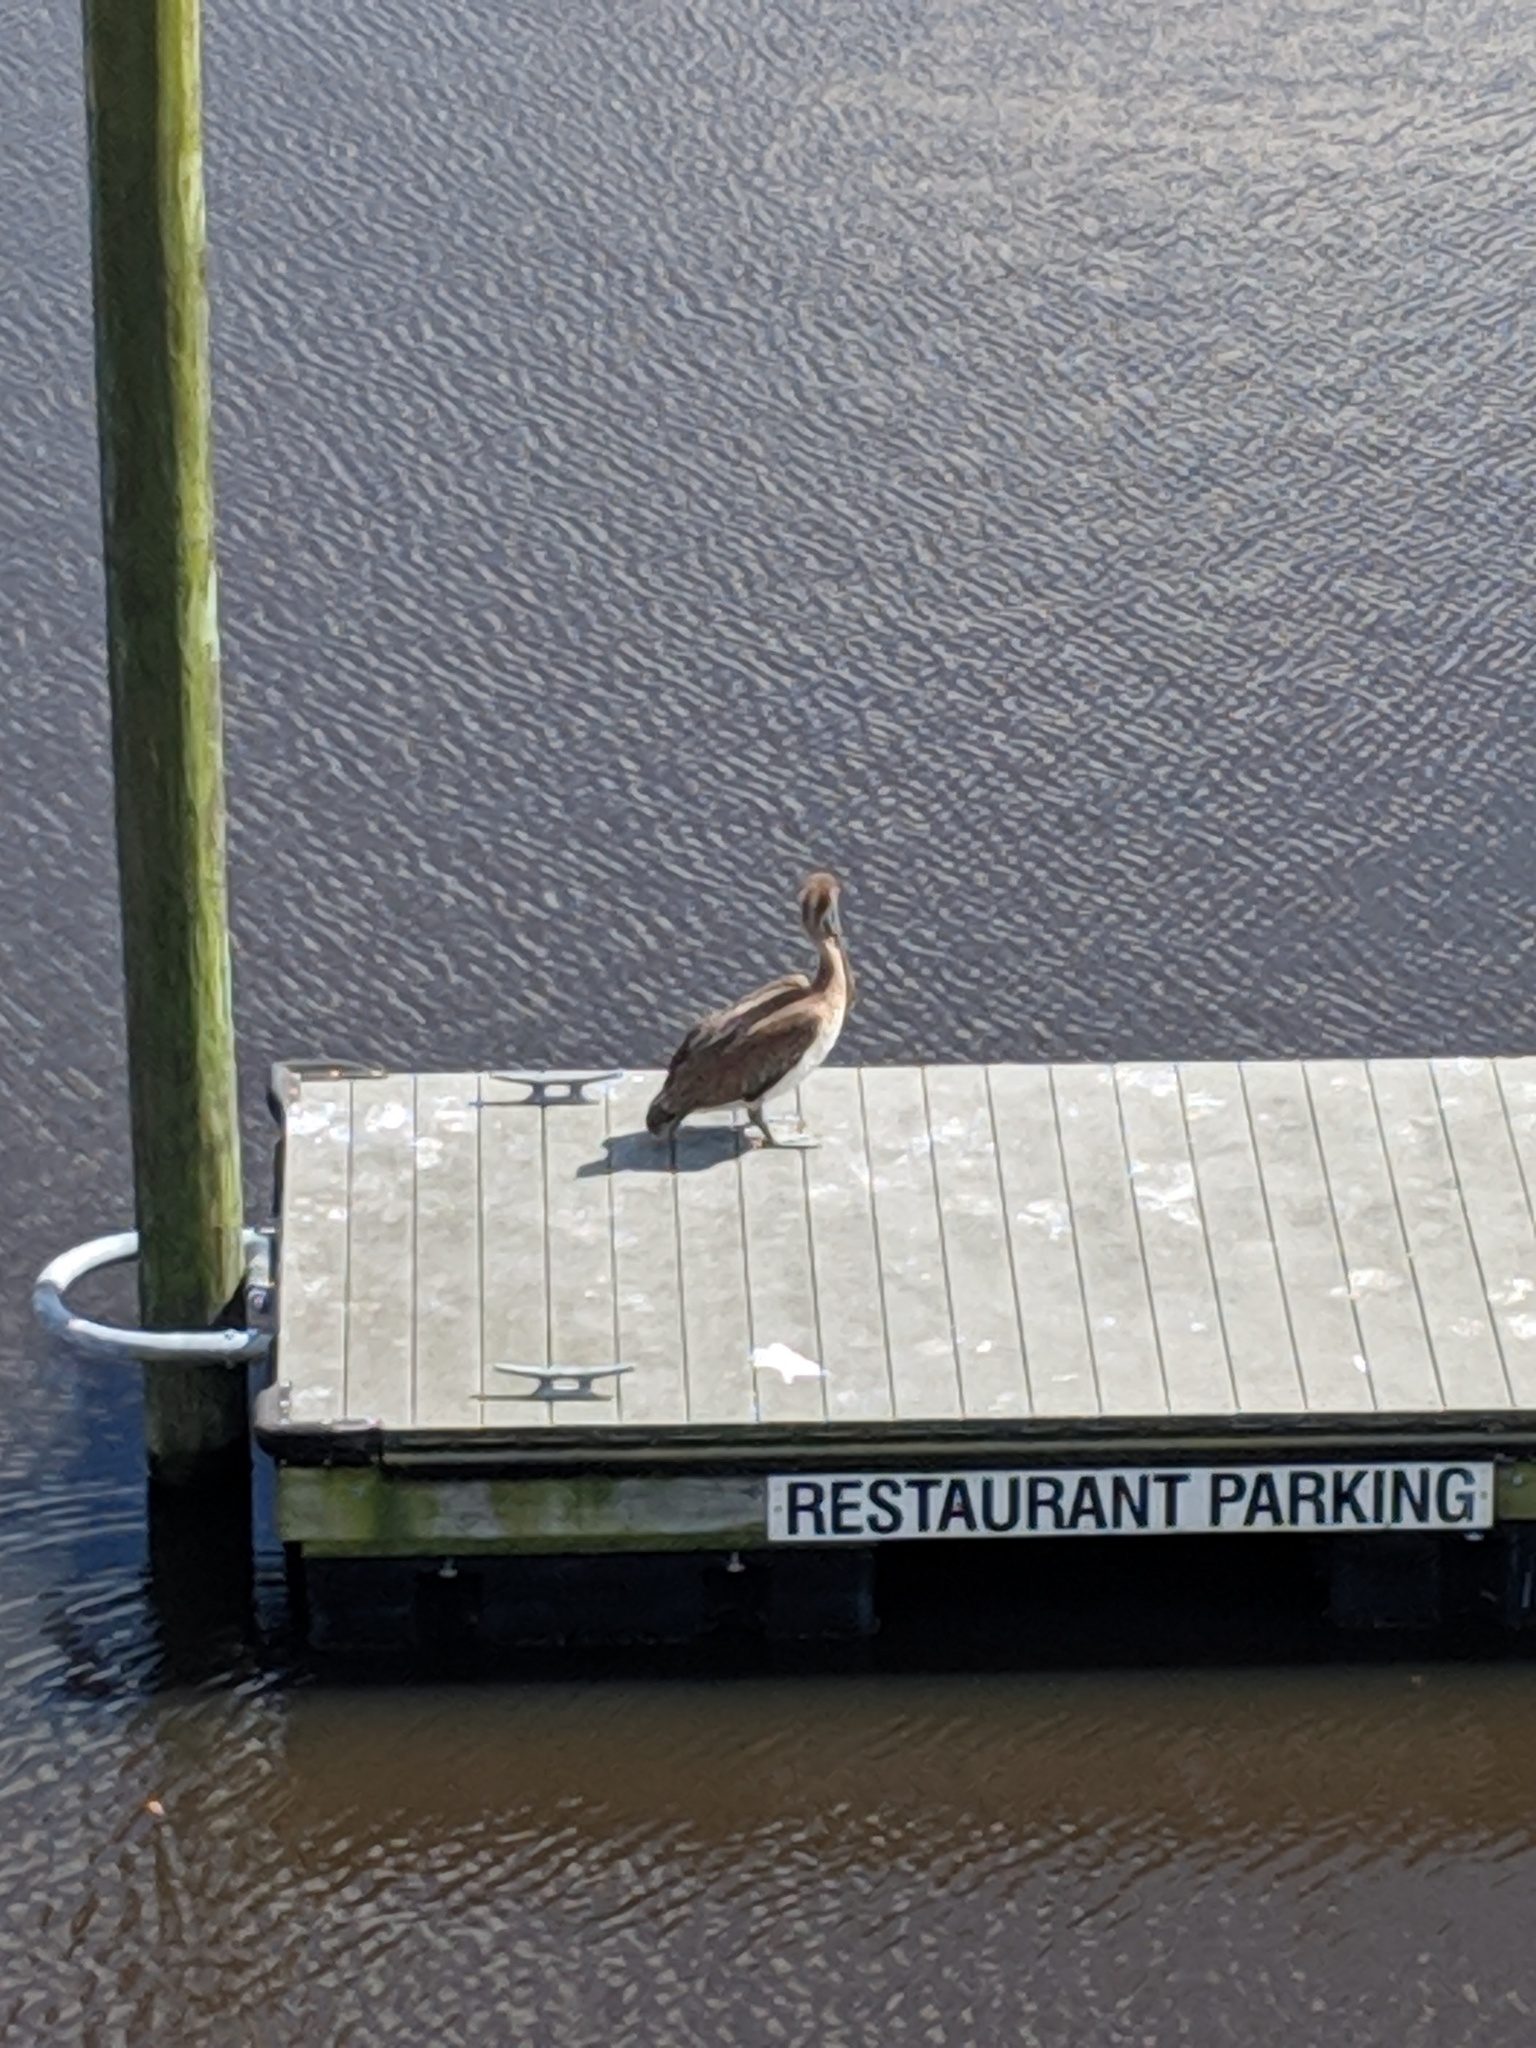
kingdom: Animalia
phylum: Chordata
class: Aves
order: Pelecaniformes
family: Pelecanidae
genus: Pelecanus
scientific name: Pelecanus occidentalis
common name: Brown pelican
